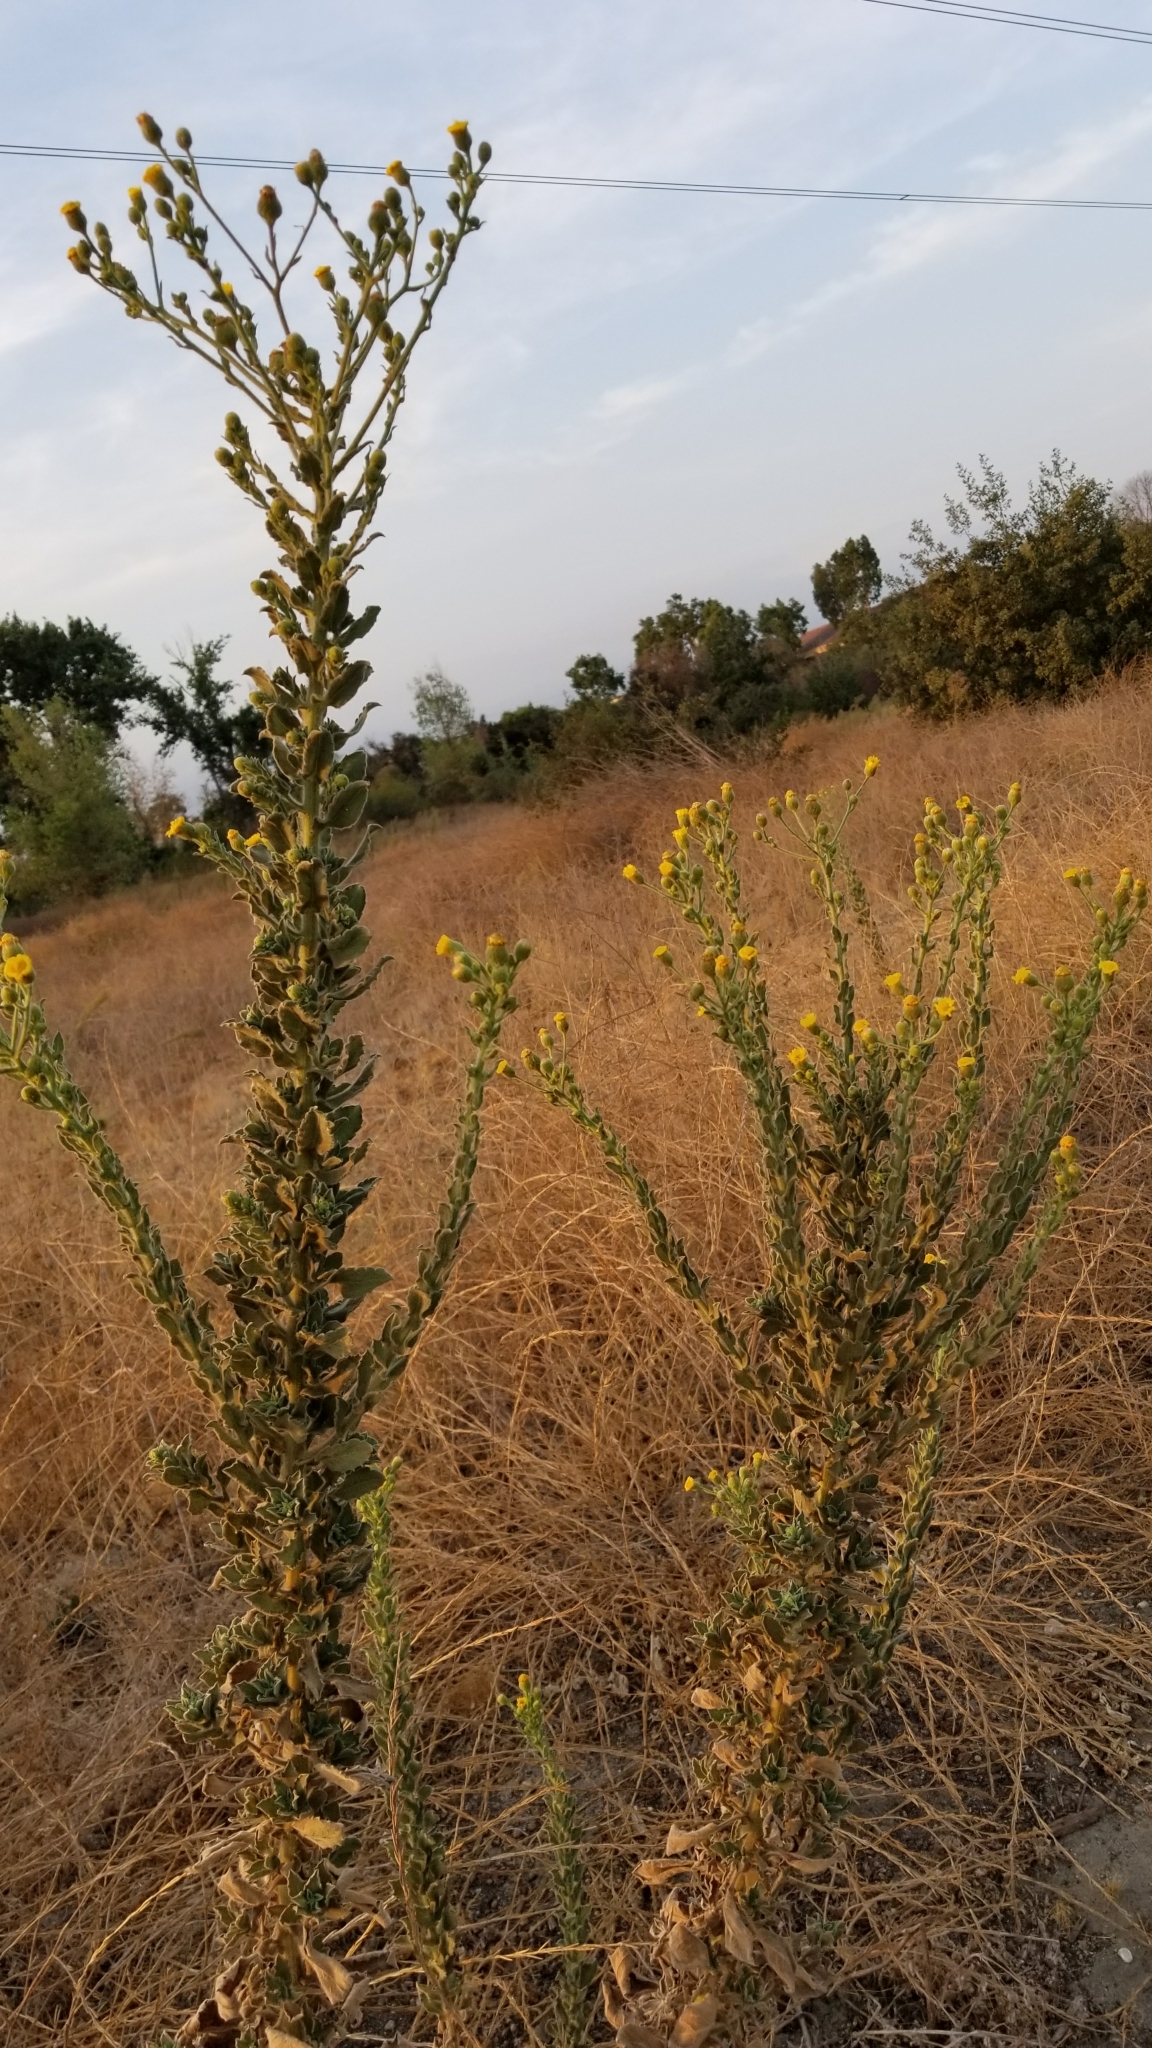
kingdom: Plantae
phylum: Tracheophyta
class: Magnoliopsida
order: Asterales
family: Asteraceae
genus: Heterotheca
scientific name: Heterotheca grandiflora
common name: Telegraphweed
